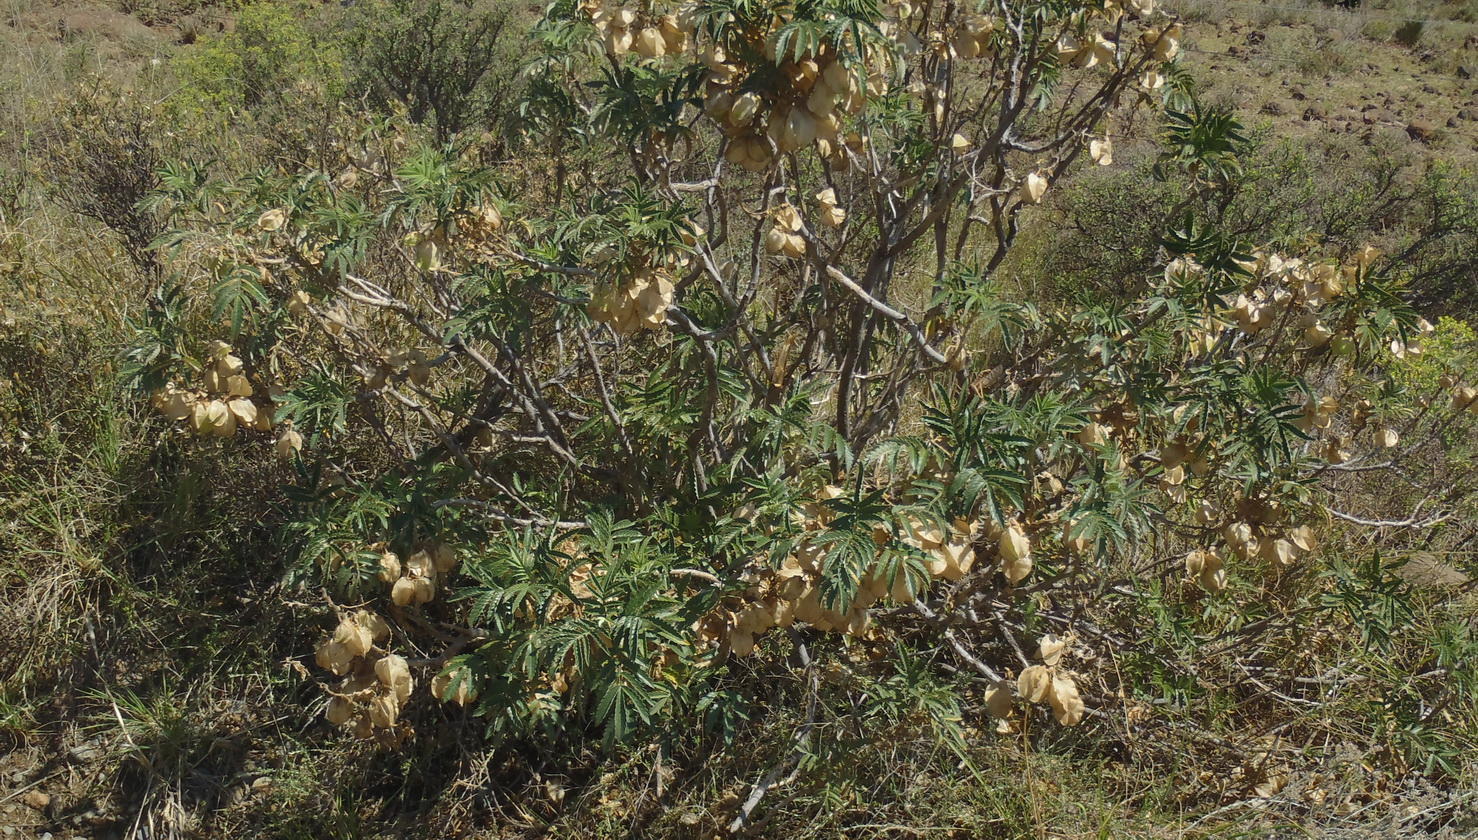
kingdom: Plantae
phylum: Tracheophyta
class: Magnoliopsida
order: Geraniales
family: Melianthaceae
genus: Melianthus
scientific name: Melianthus comosus
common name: Touch-me-not
